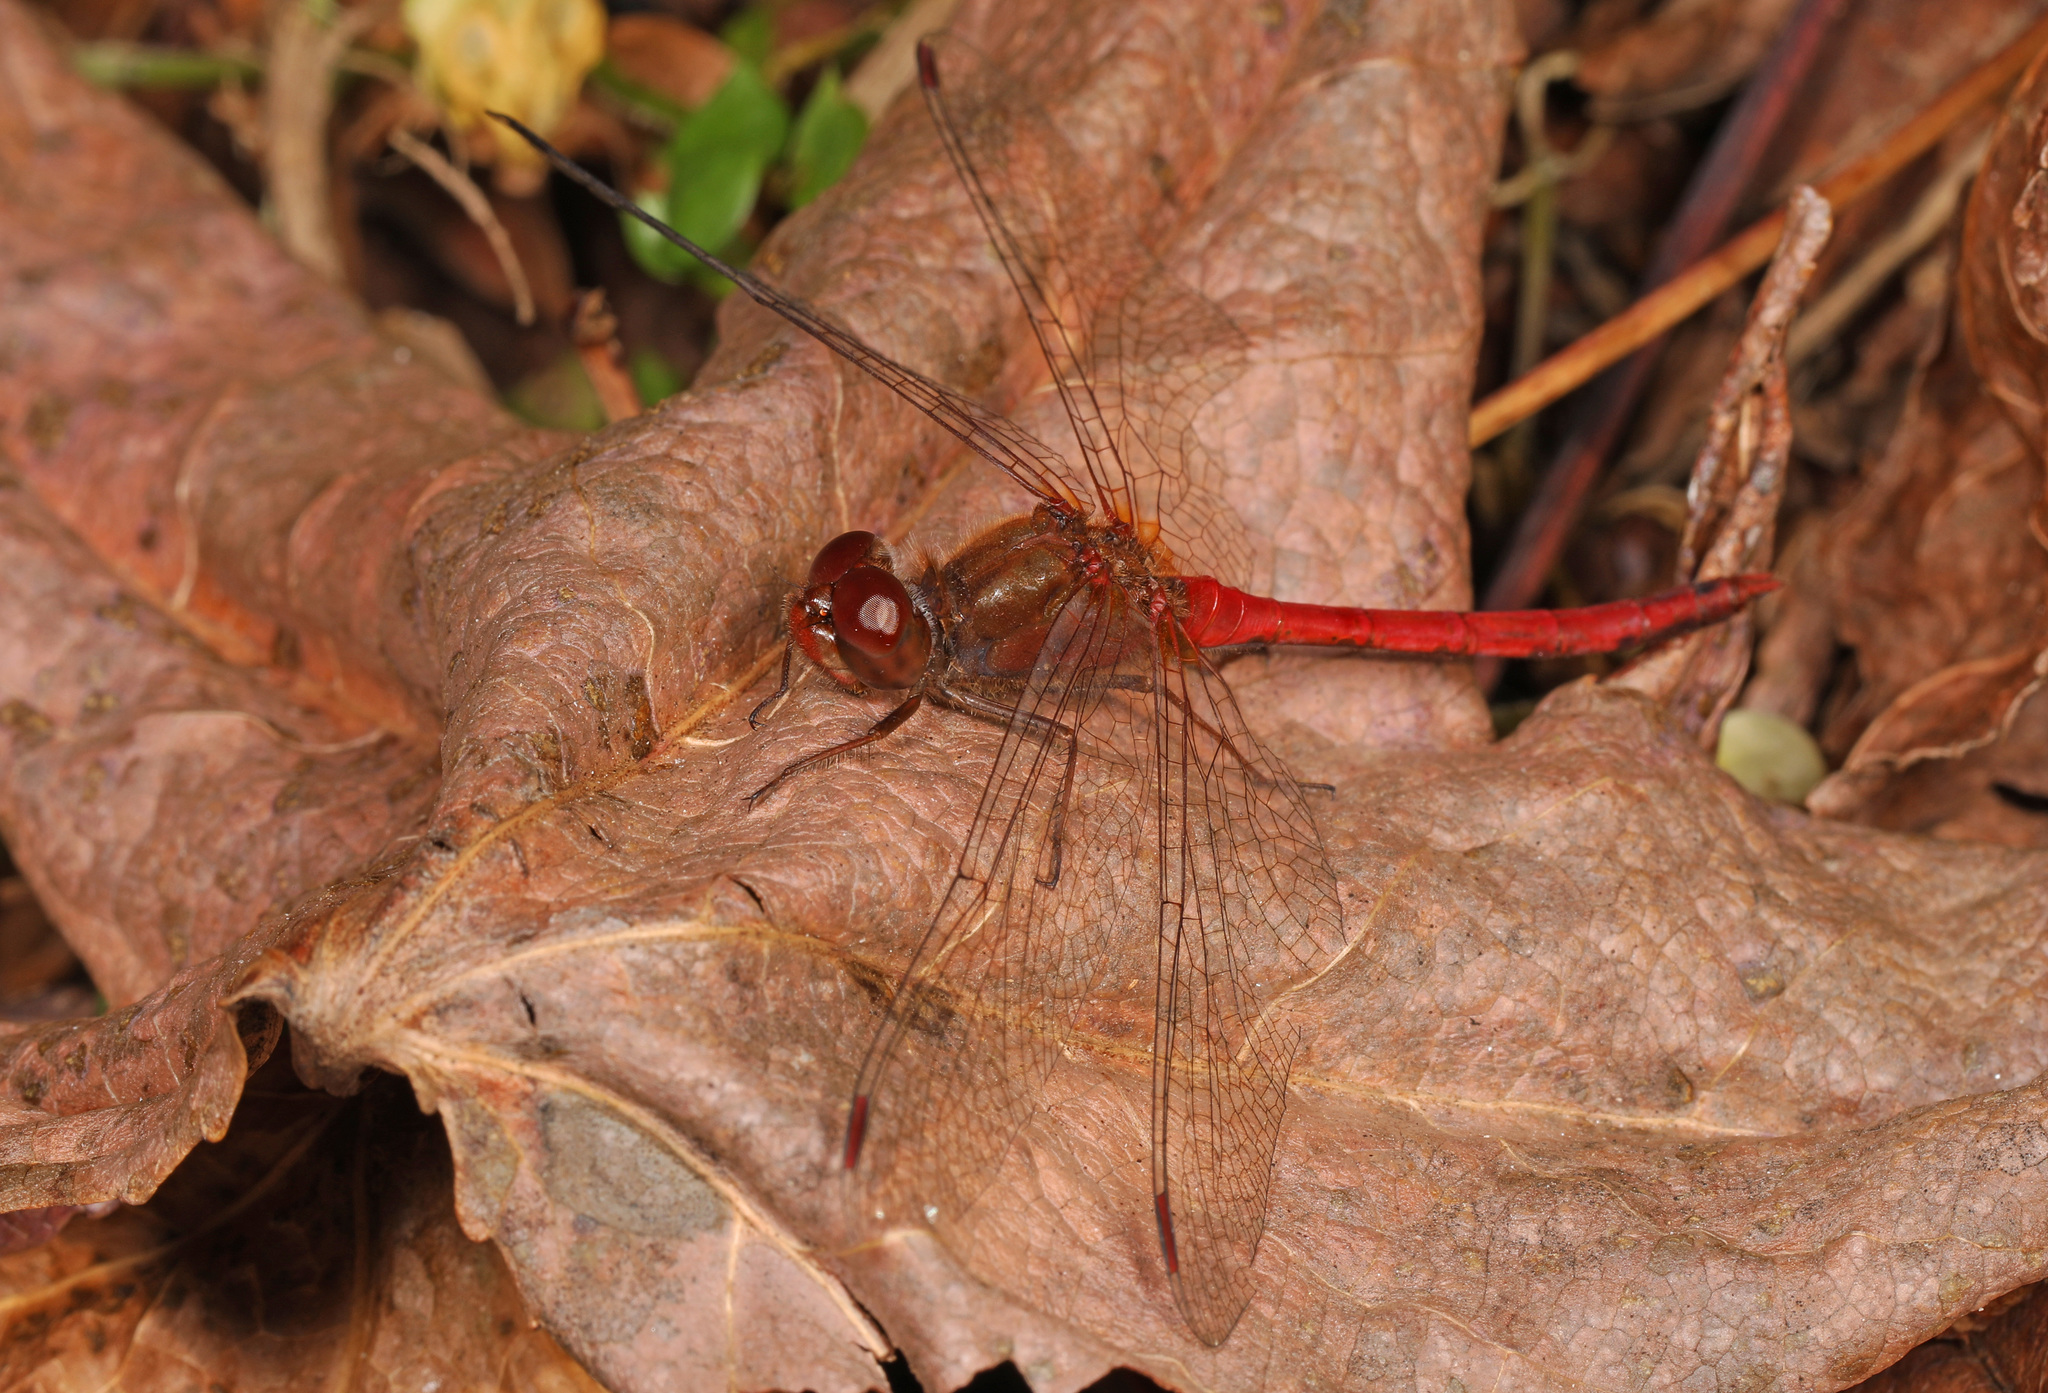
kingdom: Animalia
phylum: Arthropoda
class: Insecta
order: Odonata
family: Libellulidae
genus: Sympetrum
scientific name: Sympetrum vicinum
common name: Autumn meadowhawk
